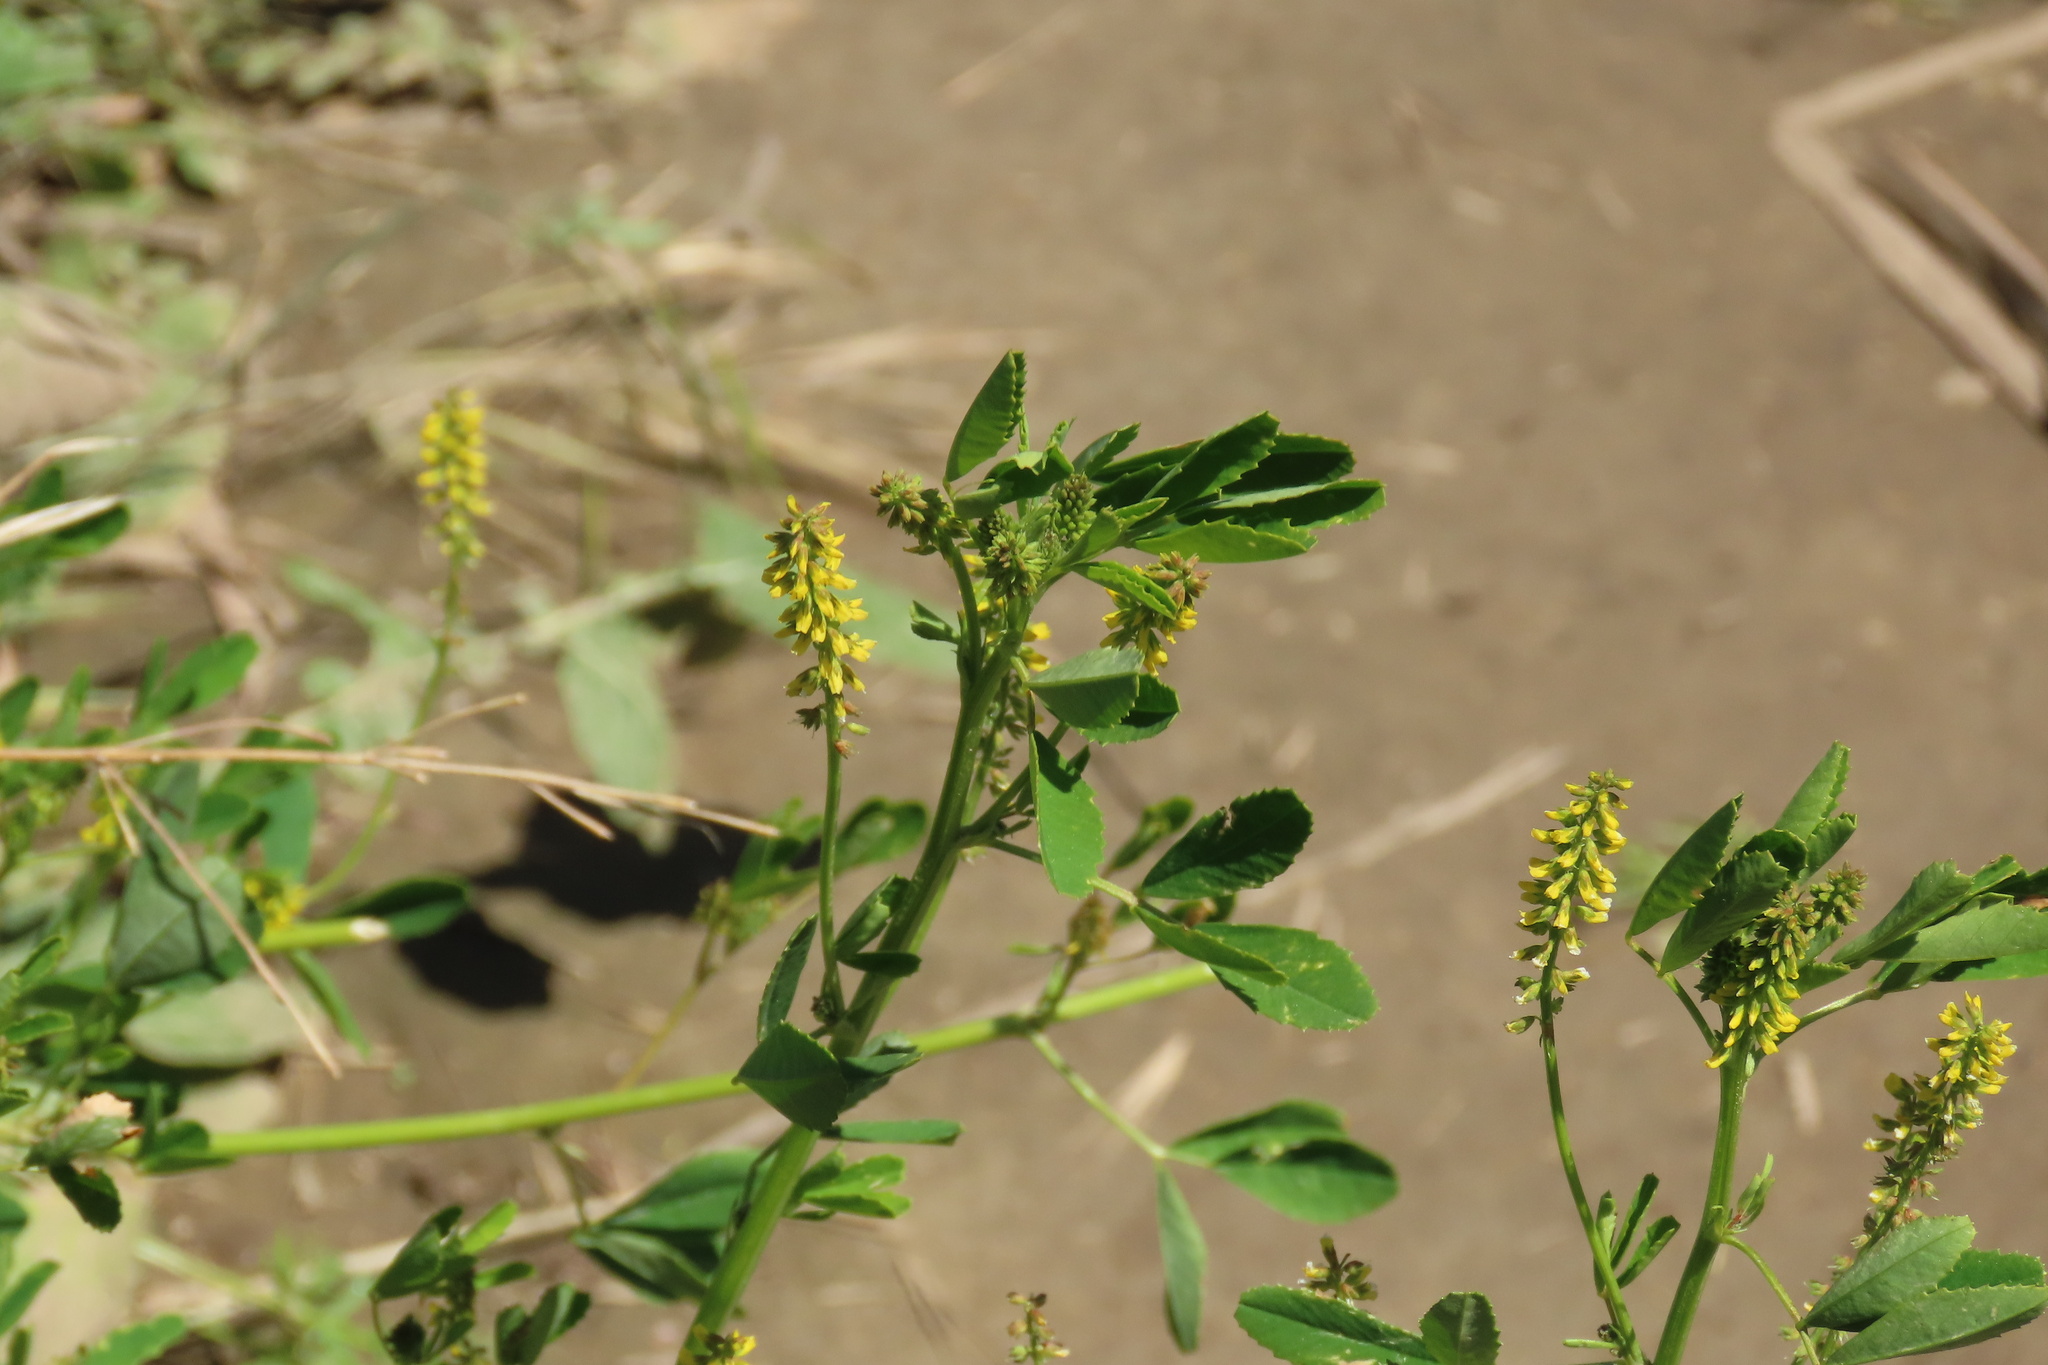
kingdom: Plantae
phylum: Tracheophyta
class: Magnoliopsida
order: Fabales
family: Fabaceae
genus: Melilotus
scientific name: Melilotus indicus
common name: Small melilot
